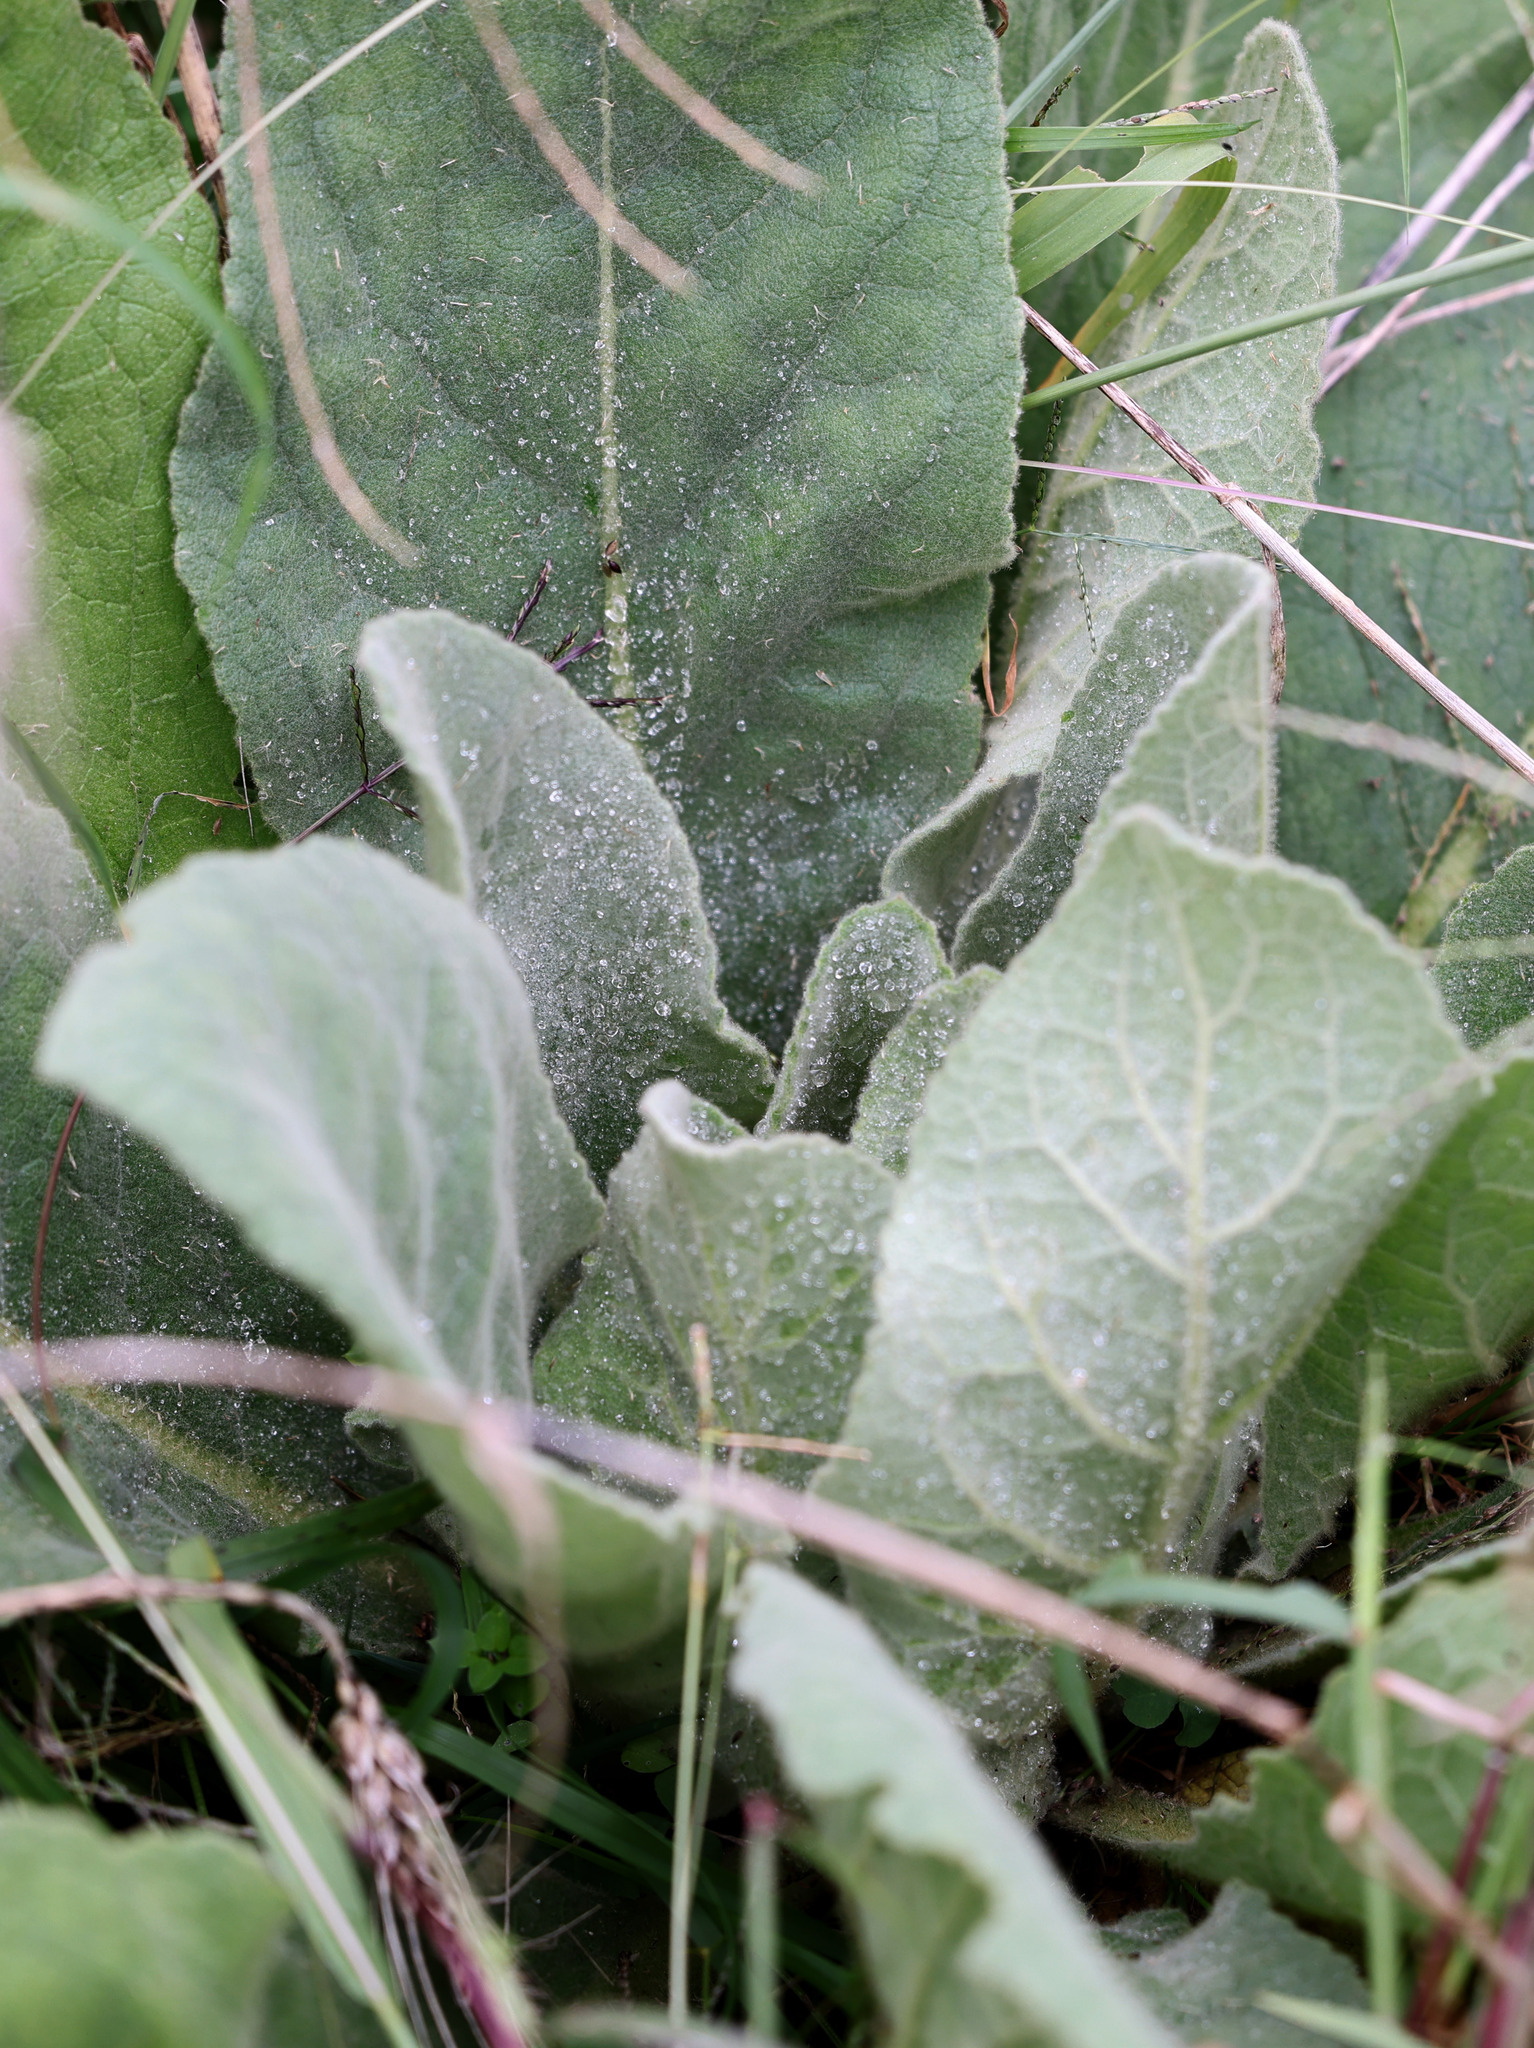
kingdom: Plantae
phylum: Tracheophyta
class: Magnoliopsida
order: Lamiales
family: Scrophulariaceae
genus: Verbascum
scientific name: Verbascum thapsus
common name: Common mullein
